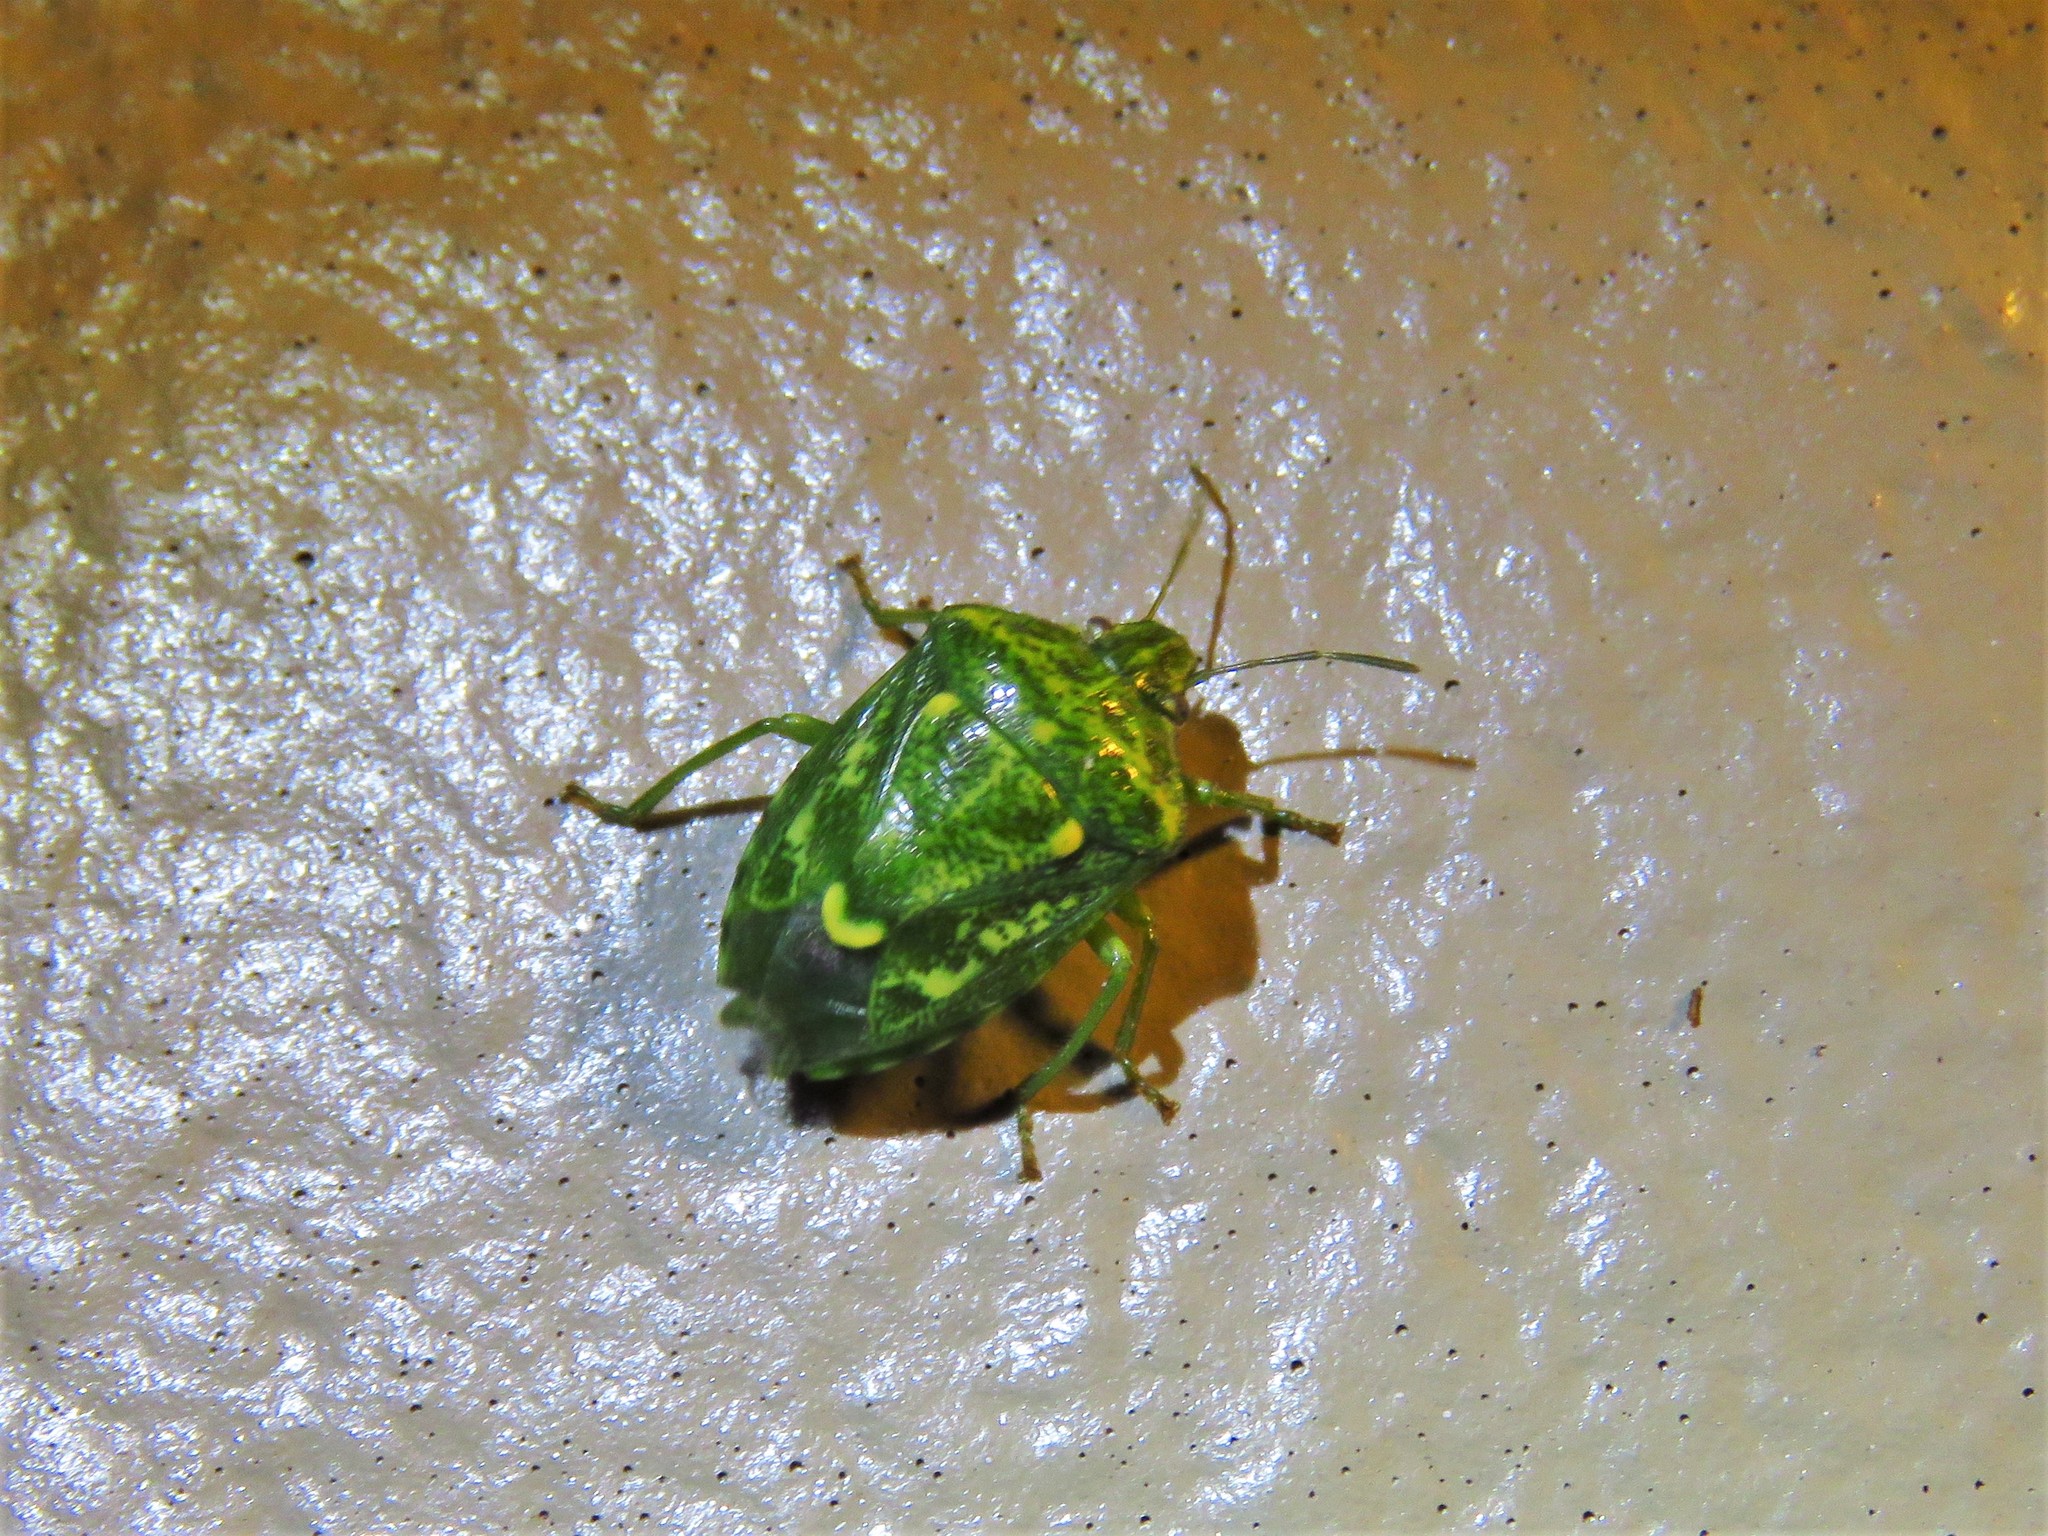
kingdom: Animalia
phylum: Arthropoda
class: Insecta
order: Hemiptera
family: Pentatomidae
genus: Banasa
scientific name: Banasa euchlora
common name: Cedar berry bug
